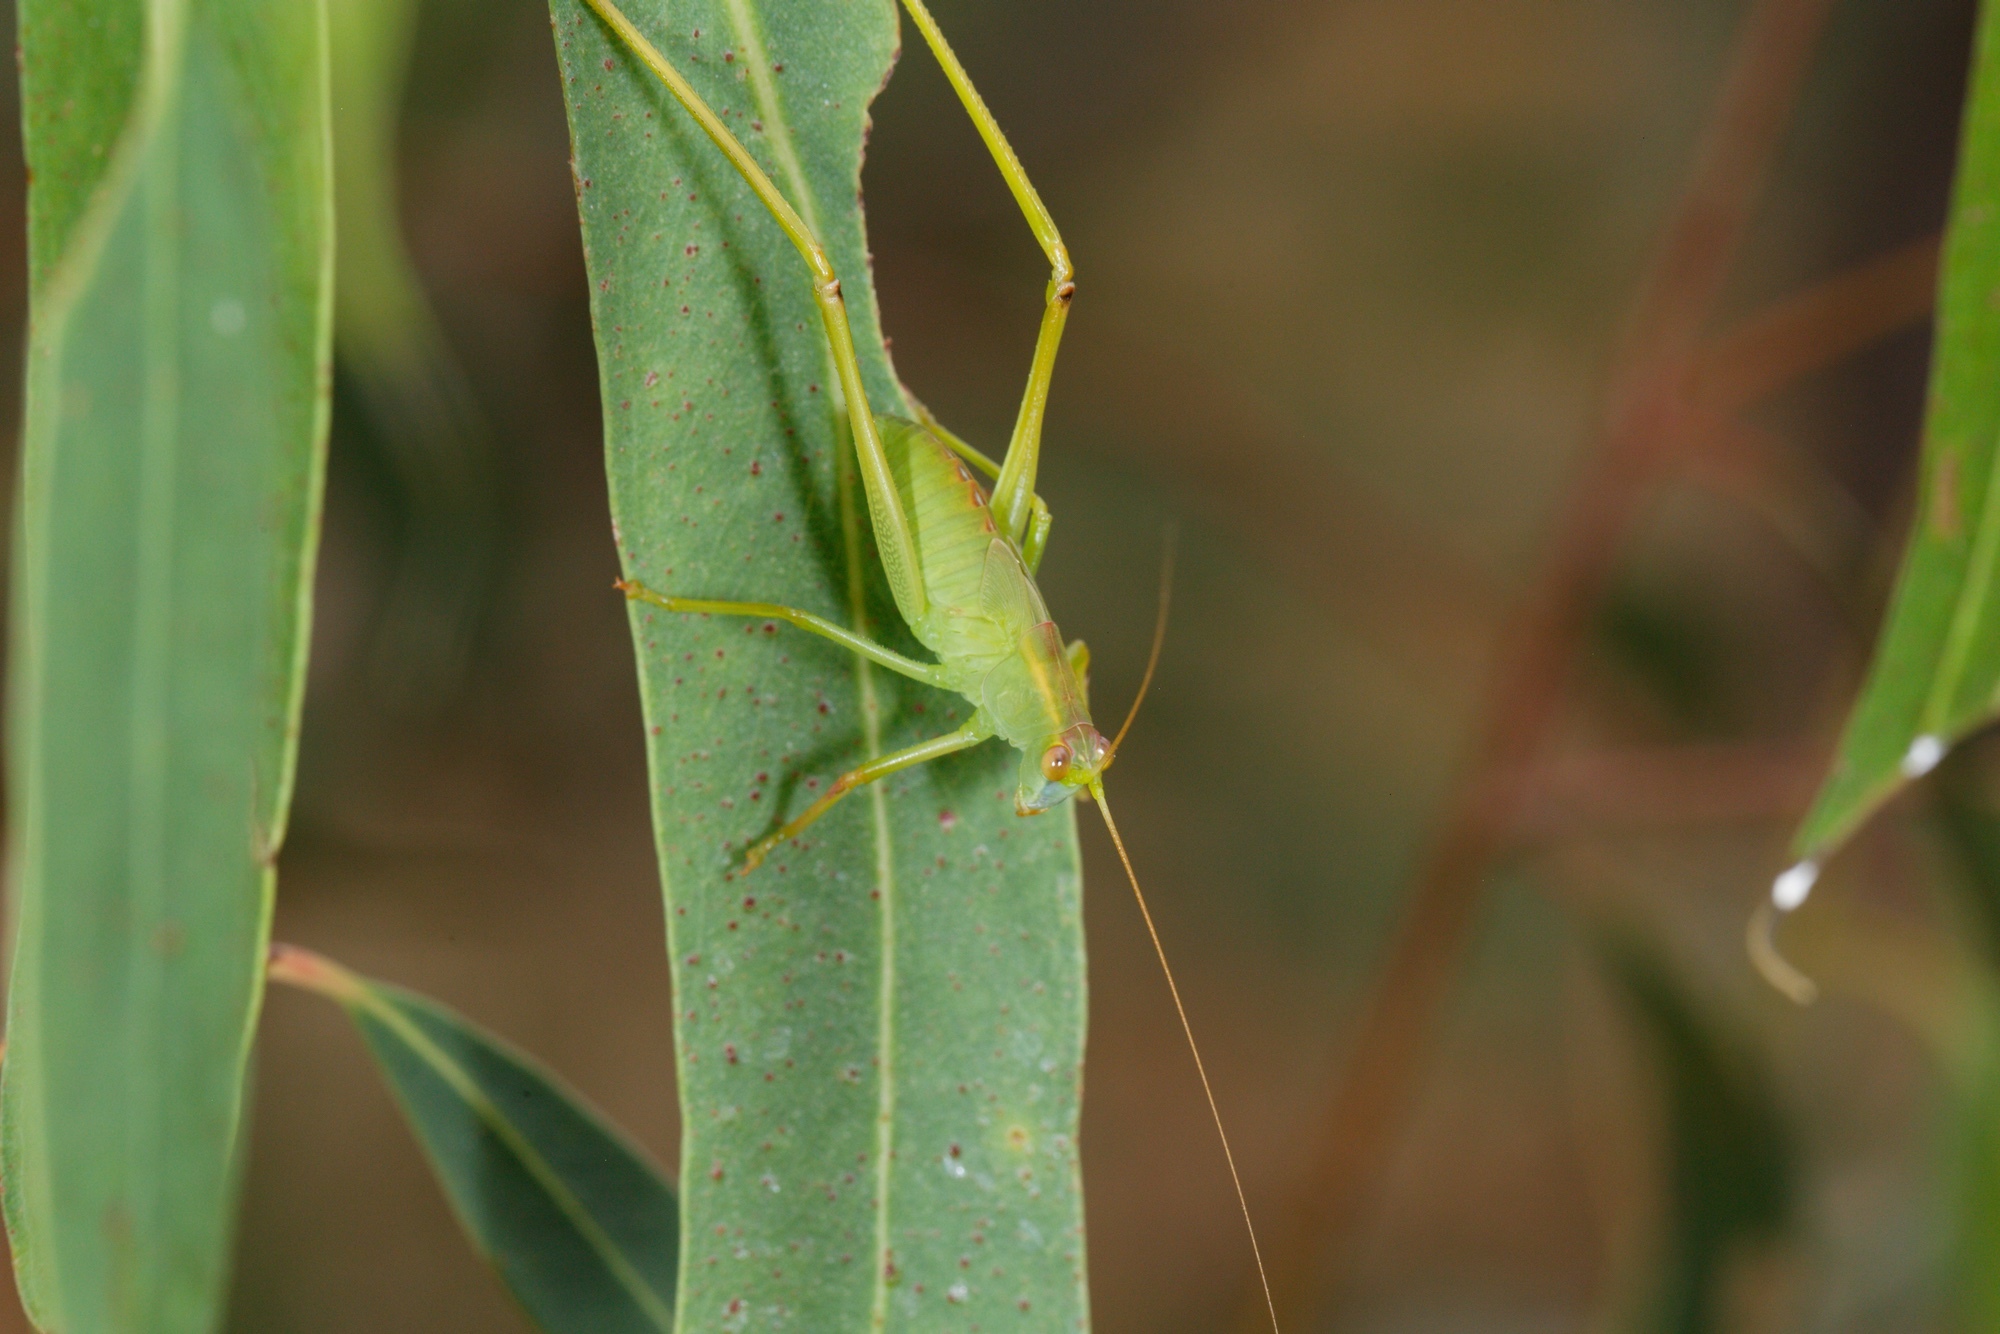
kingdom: Animalia
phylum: Arthropoda
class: Insecta
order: Orthoptera
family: Tettigoniidae
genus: Torbia
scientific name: Torbia viridissima
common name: Non-predaceous gum leaf katydid
